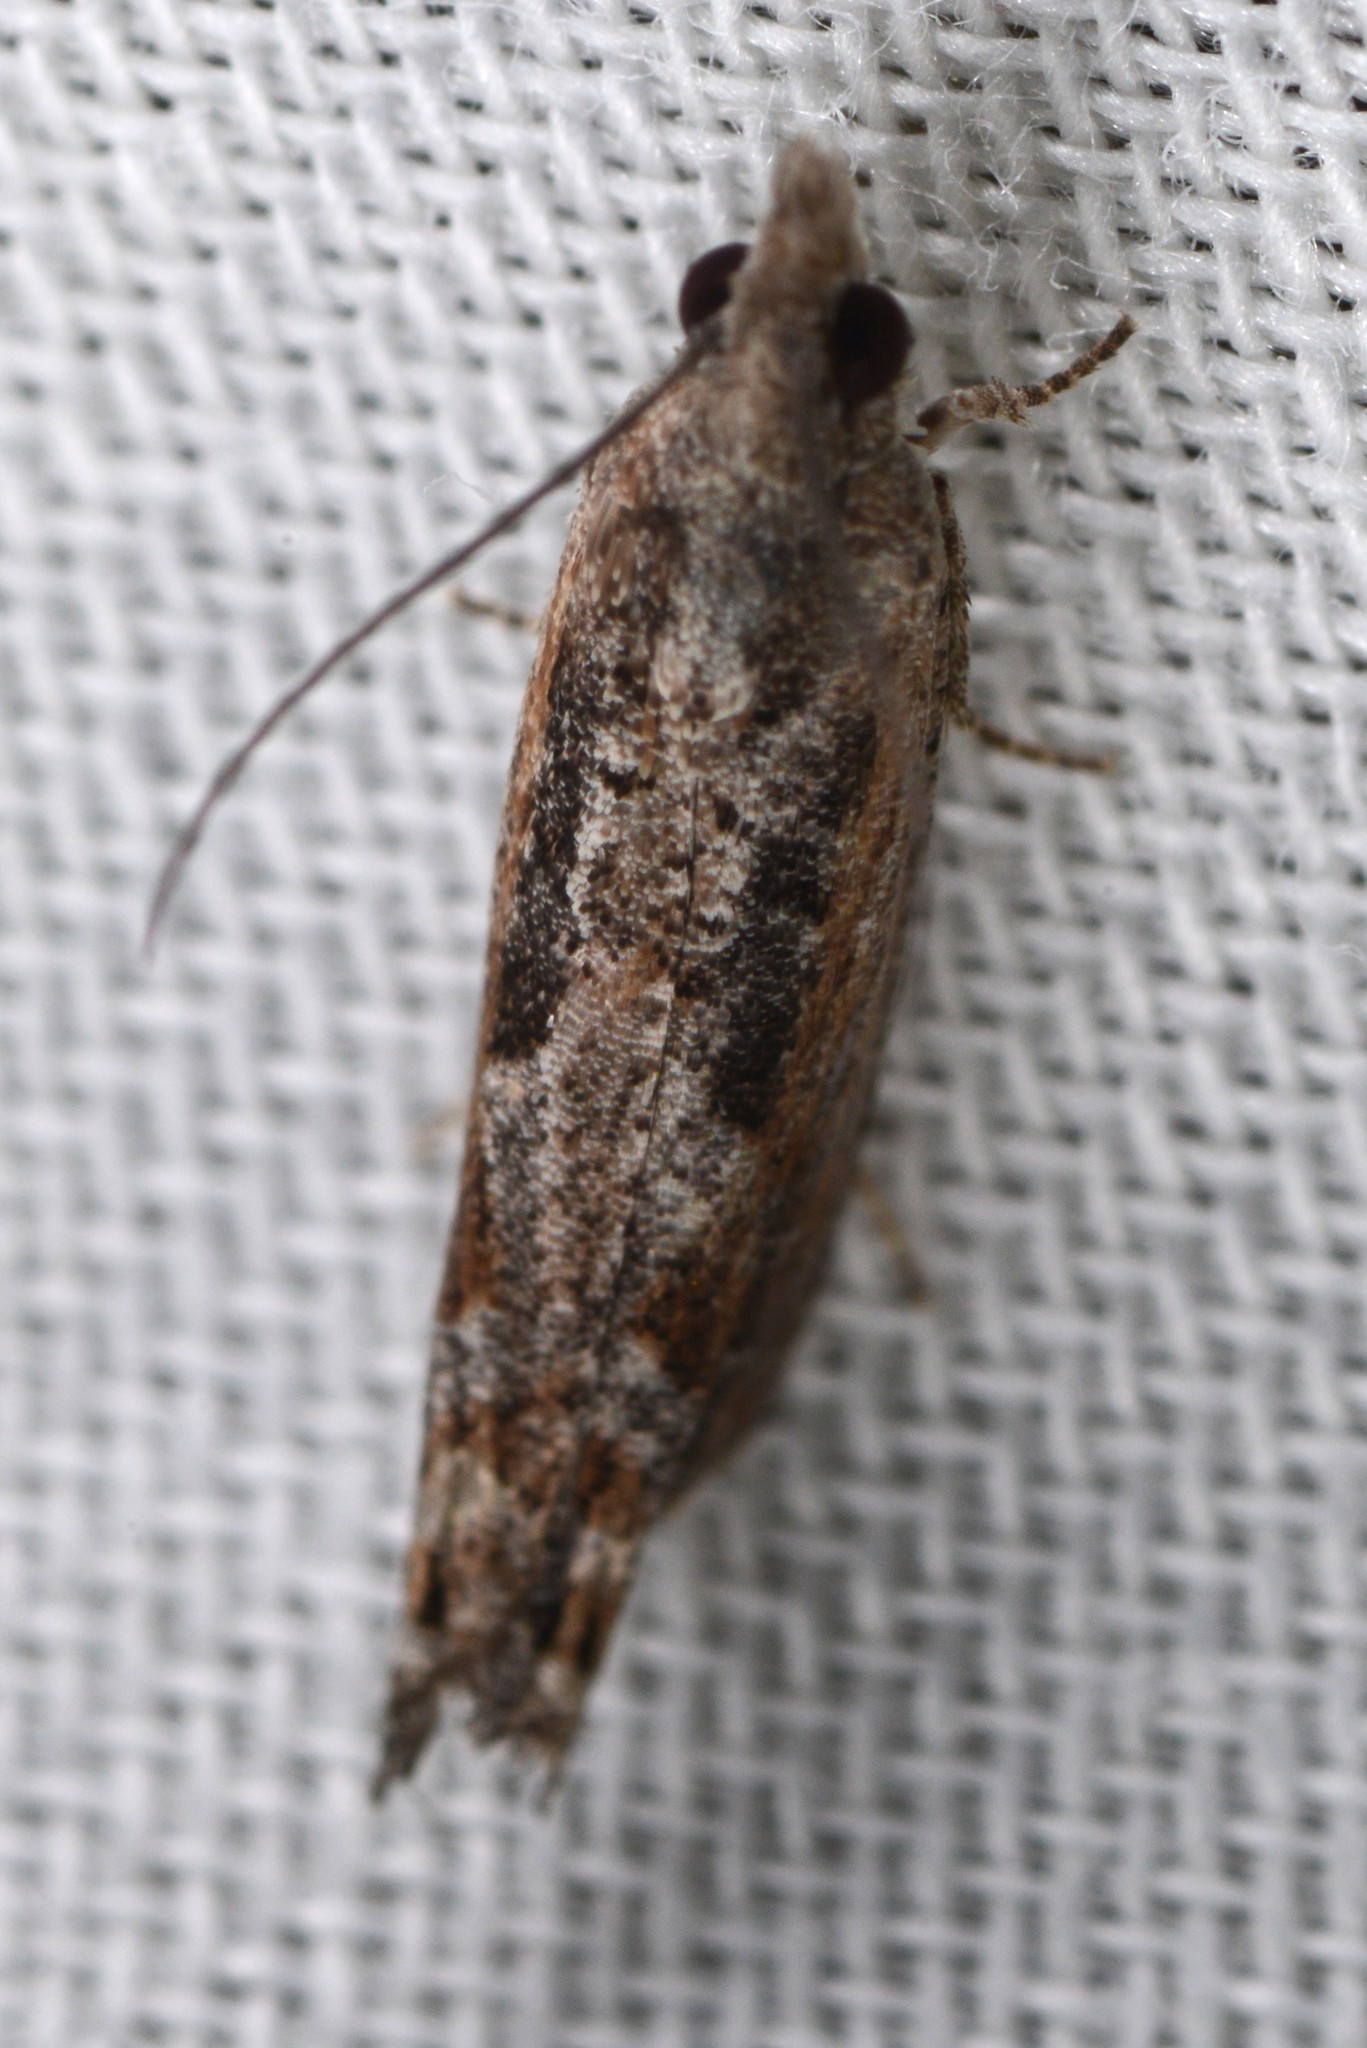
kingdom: Animalia
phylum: Arthropoda
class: Insecta
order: Lepidoptera
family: Tortricidae
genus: Strepsicrates
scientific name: Strepsicrates macropetana
